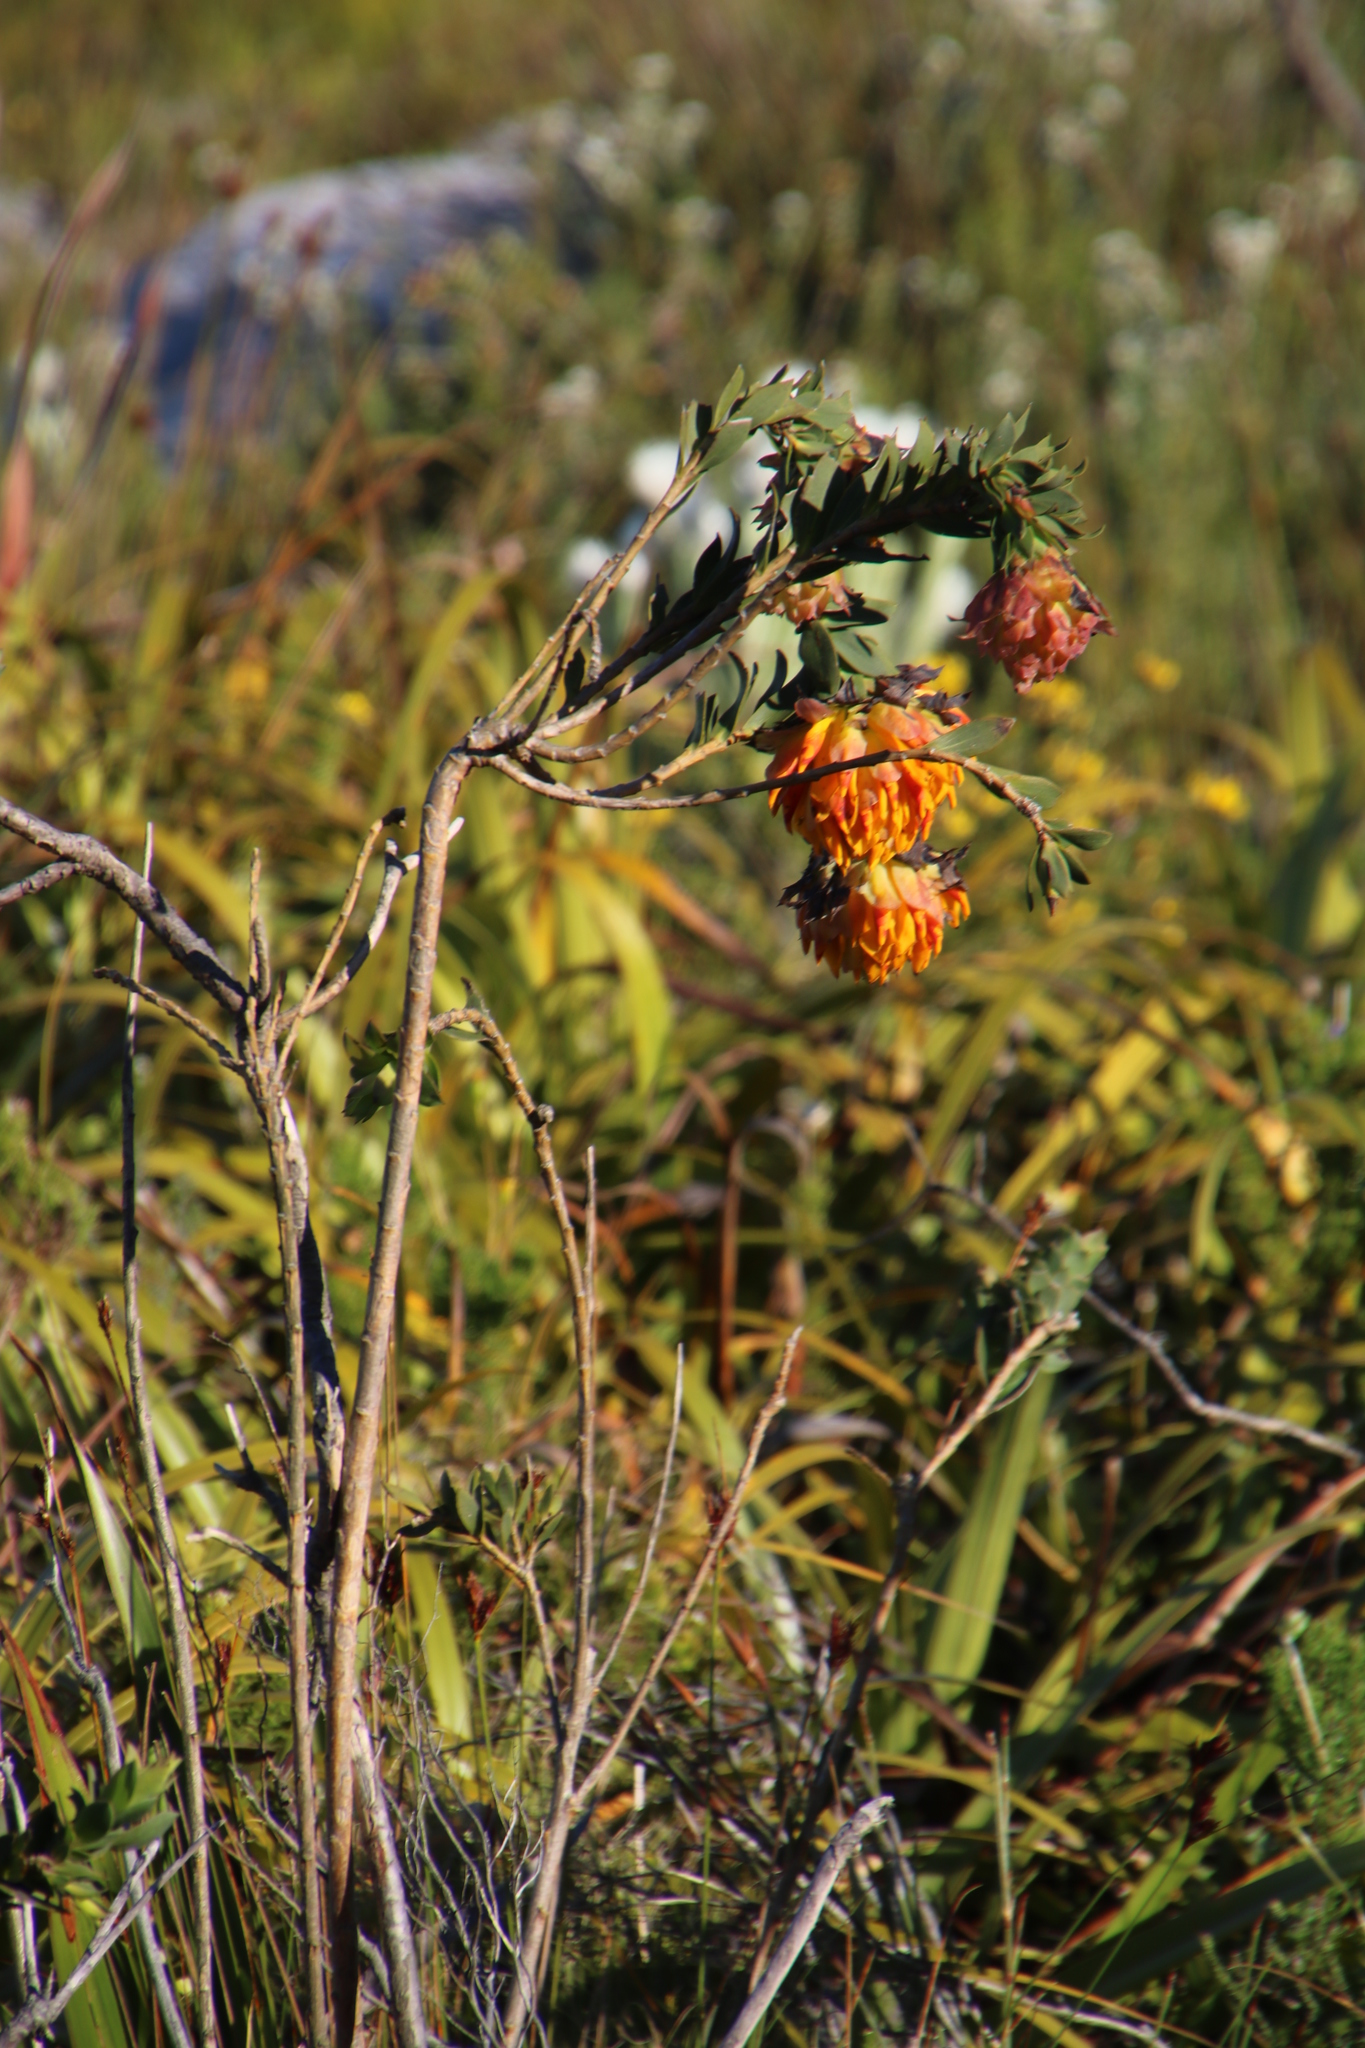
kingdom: Plantae
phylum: Tracheophyta
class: Magnoliopsida
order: Fabales
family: Fabaceae
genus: Liparia
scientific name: Liparia splendens
